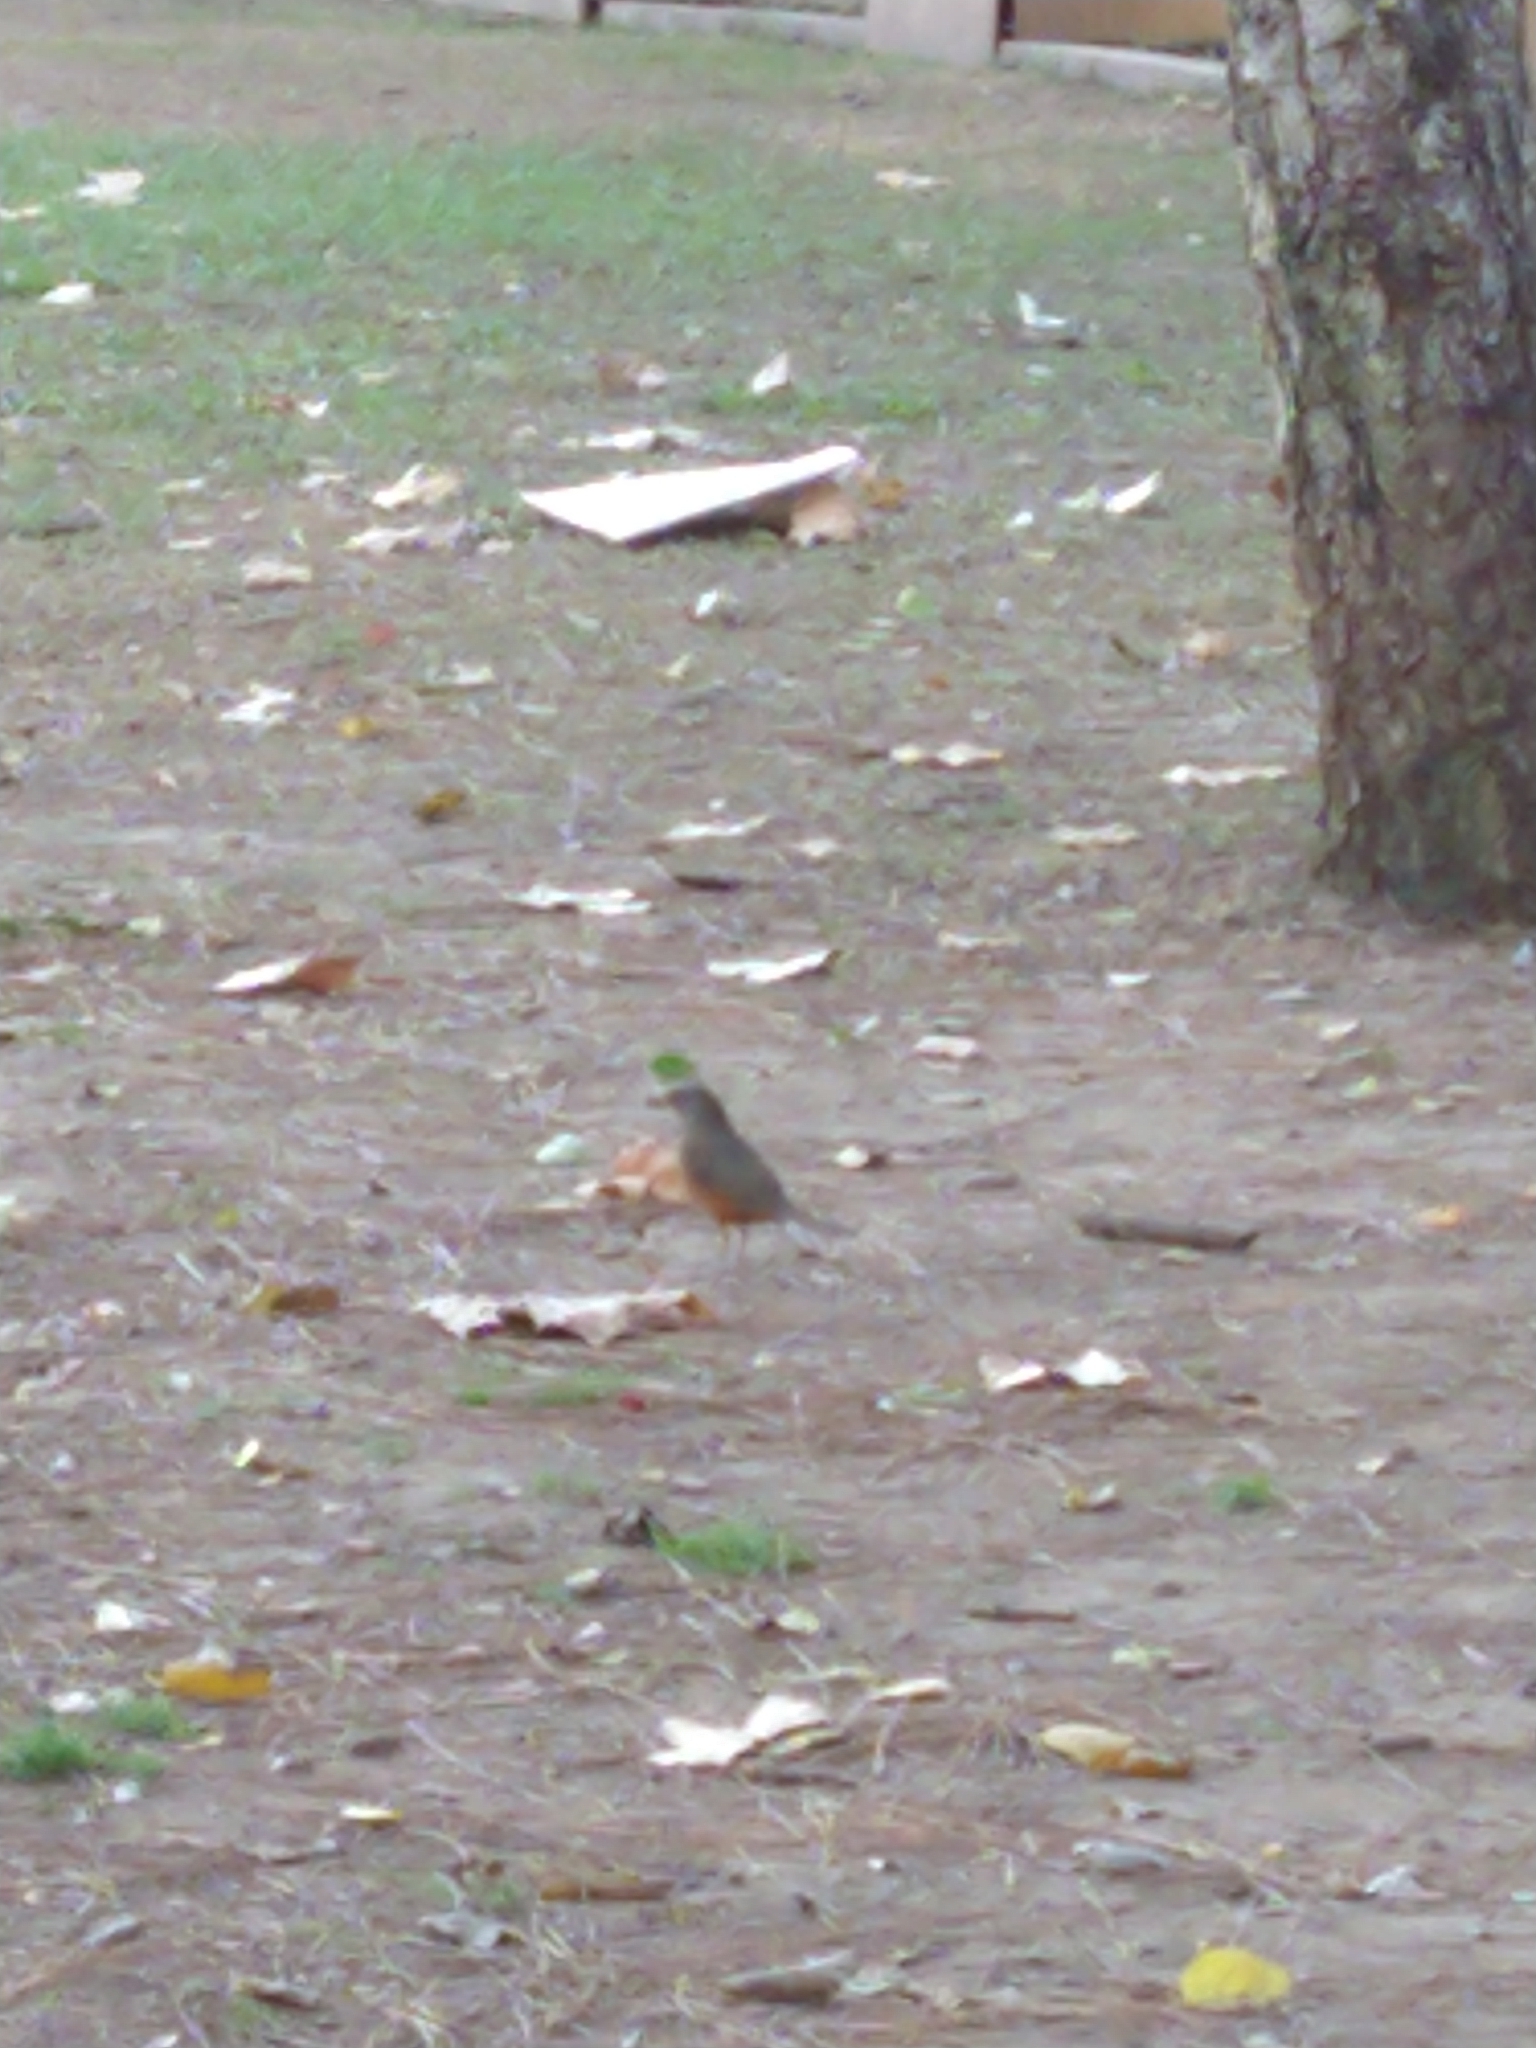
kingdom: Animalia
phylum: Chordata
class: Aves
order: Passeriformes
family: Turdidae
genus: Turdus
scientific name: Turdus rufiventris
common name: Rufous-bellied thrush
